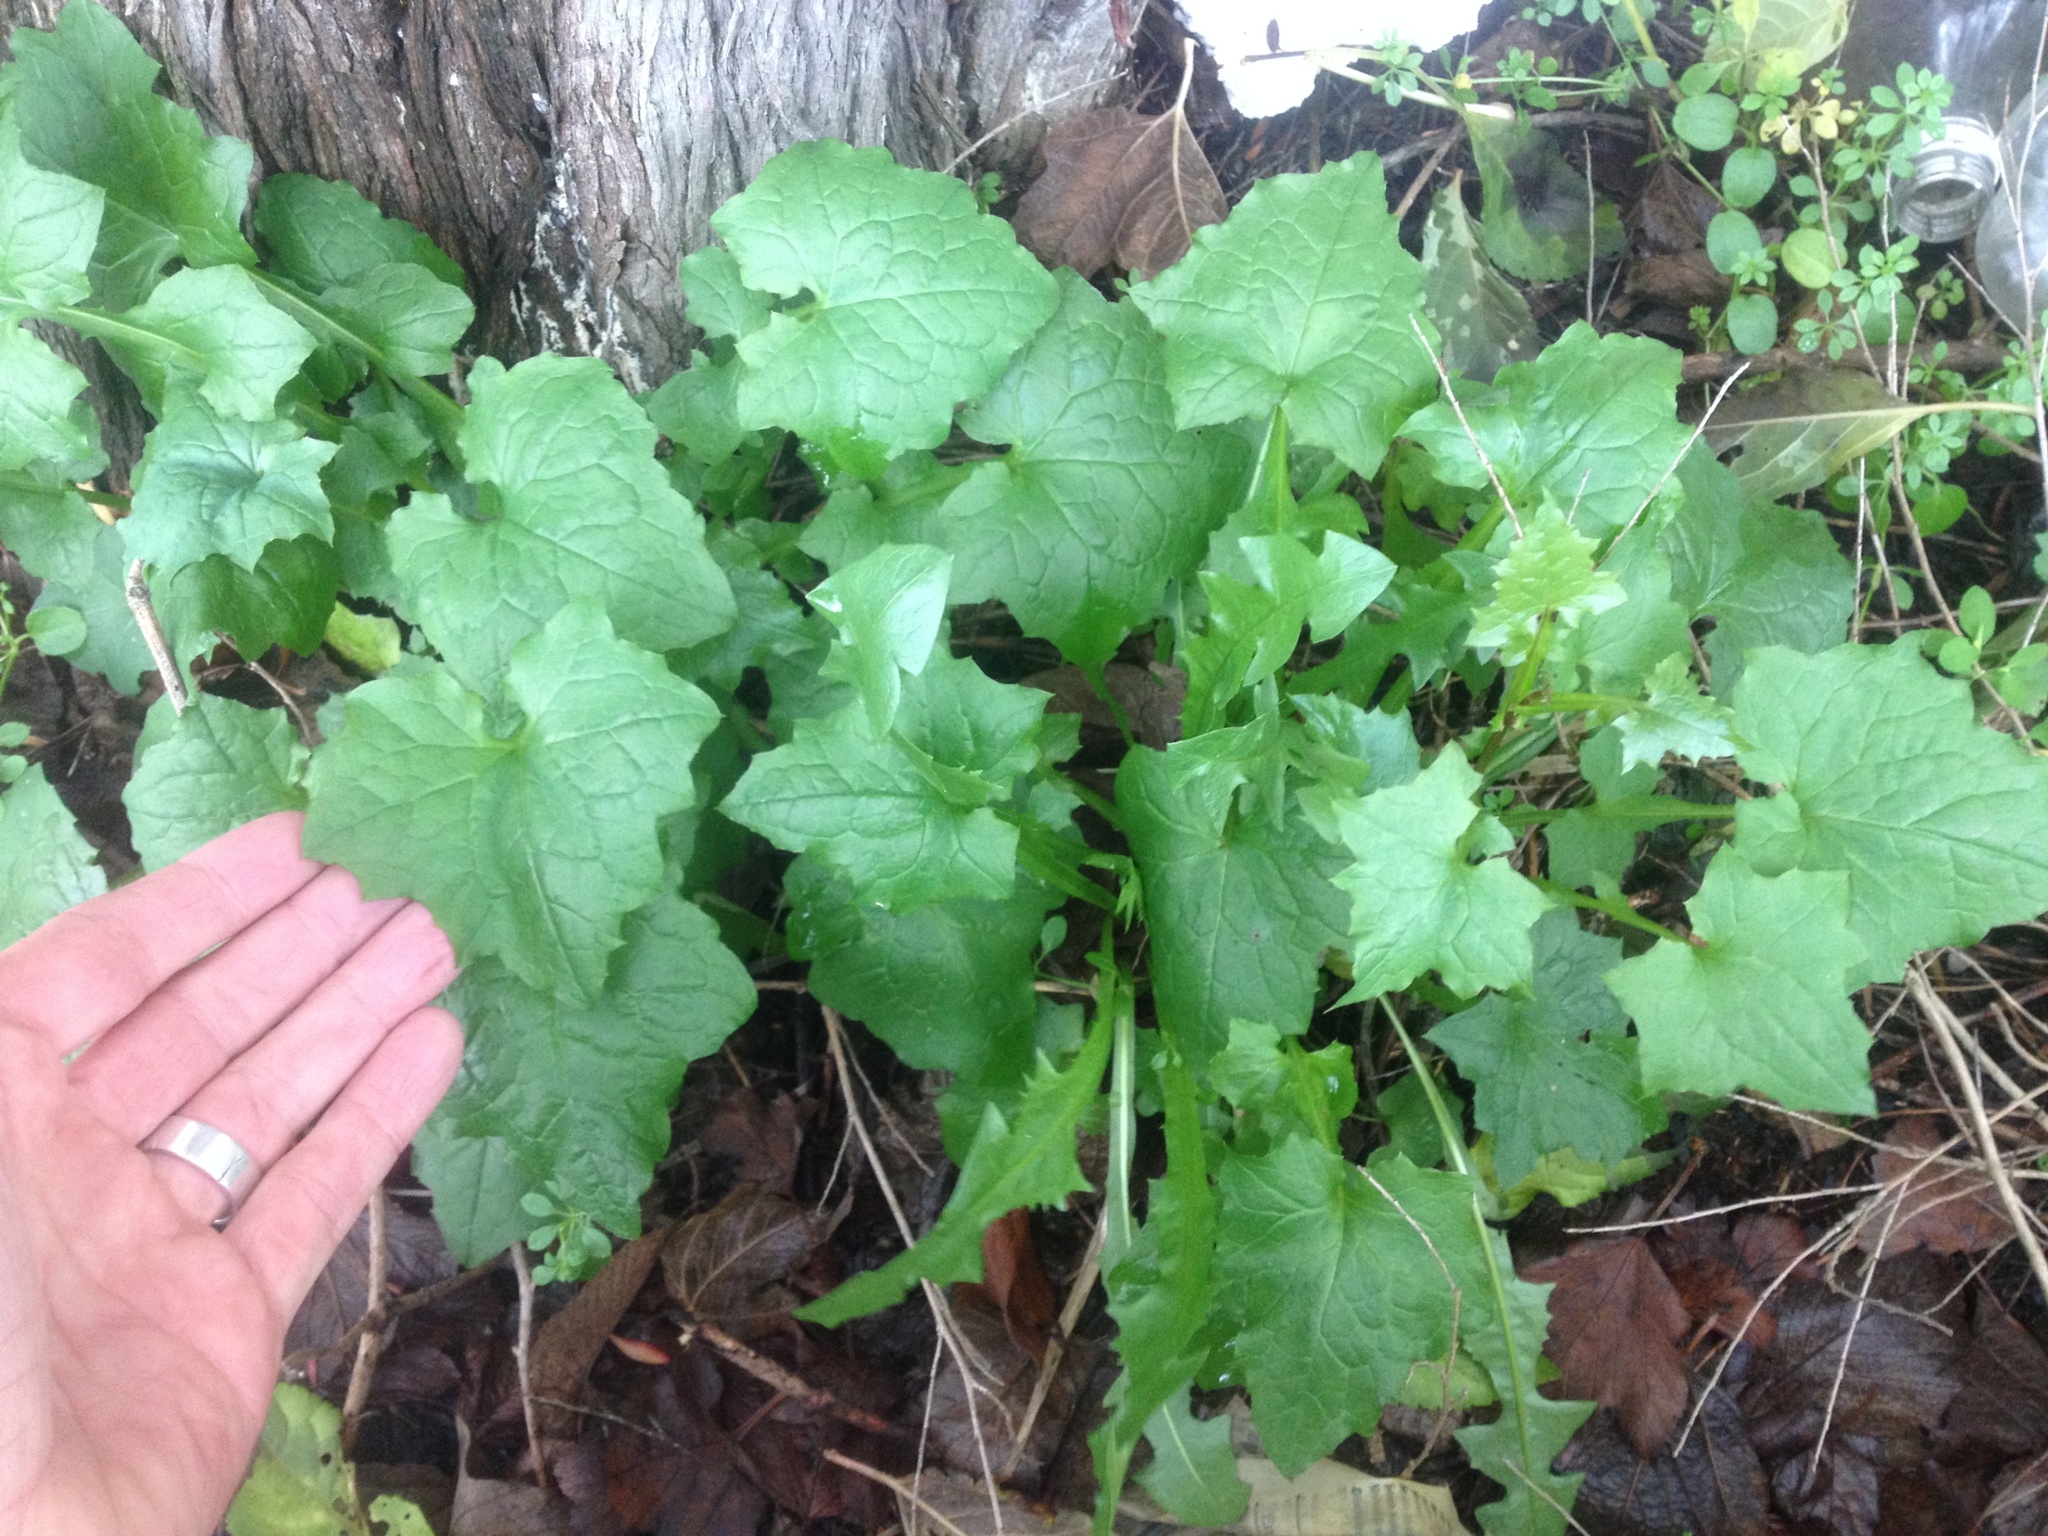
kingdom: Plantae
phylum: Tracheophyta
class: Magnoliopsida
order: Asterales
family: Asteraceae
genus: Mycelis
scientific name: Mycelis muralis
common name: Wall lettuce
